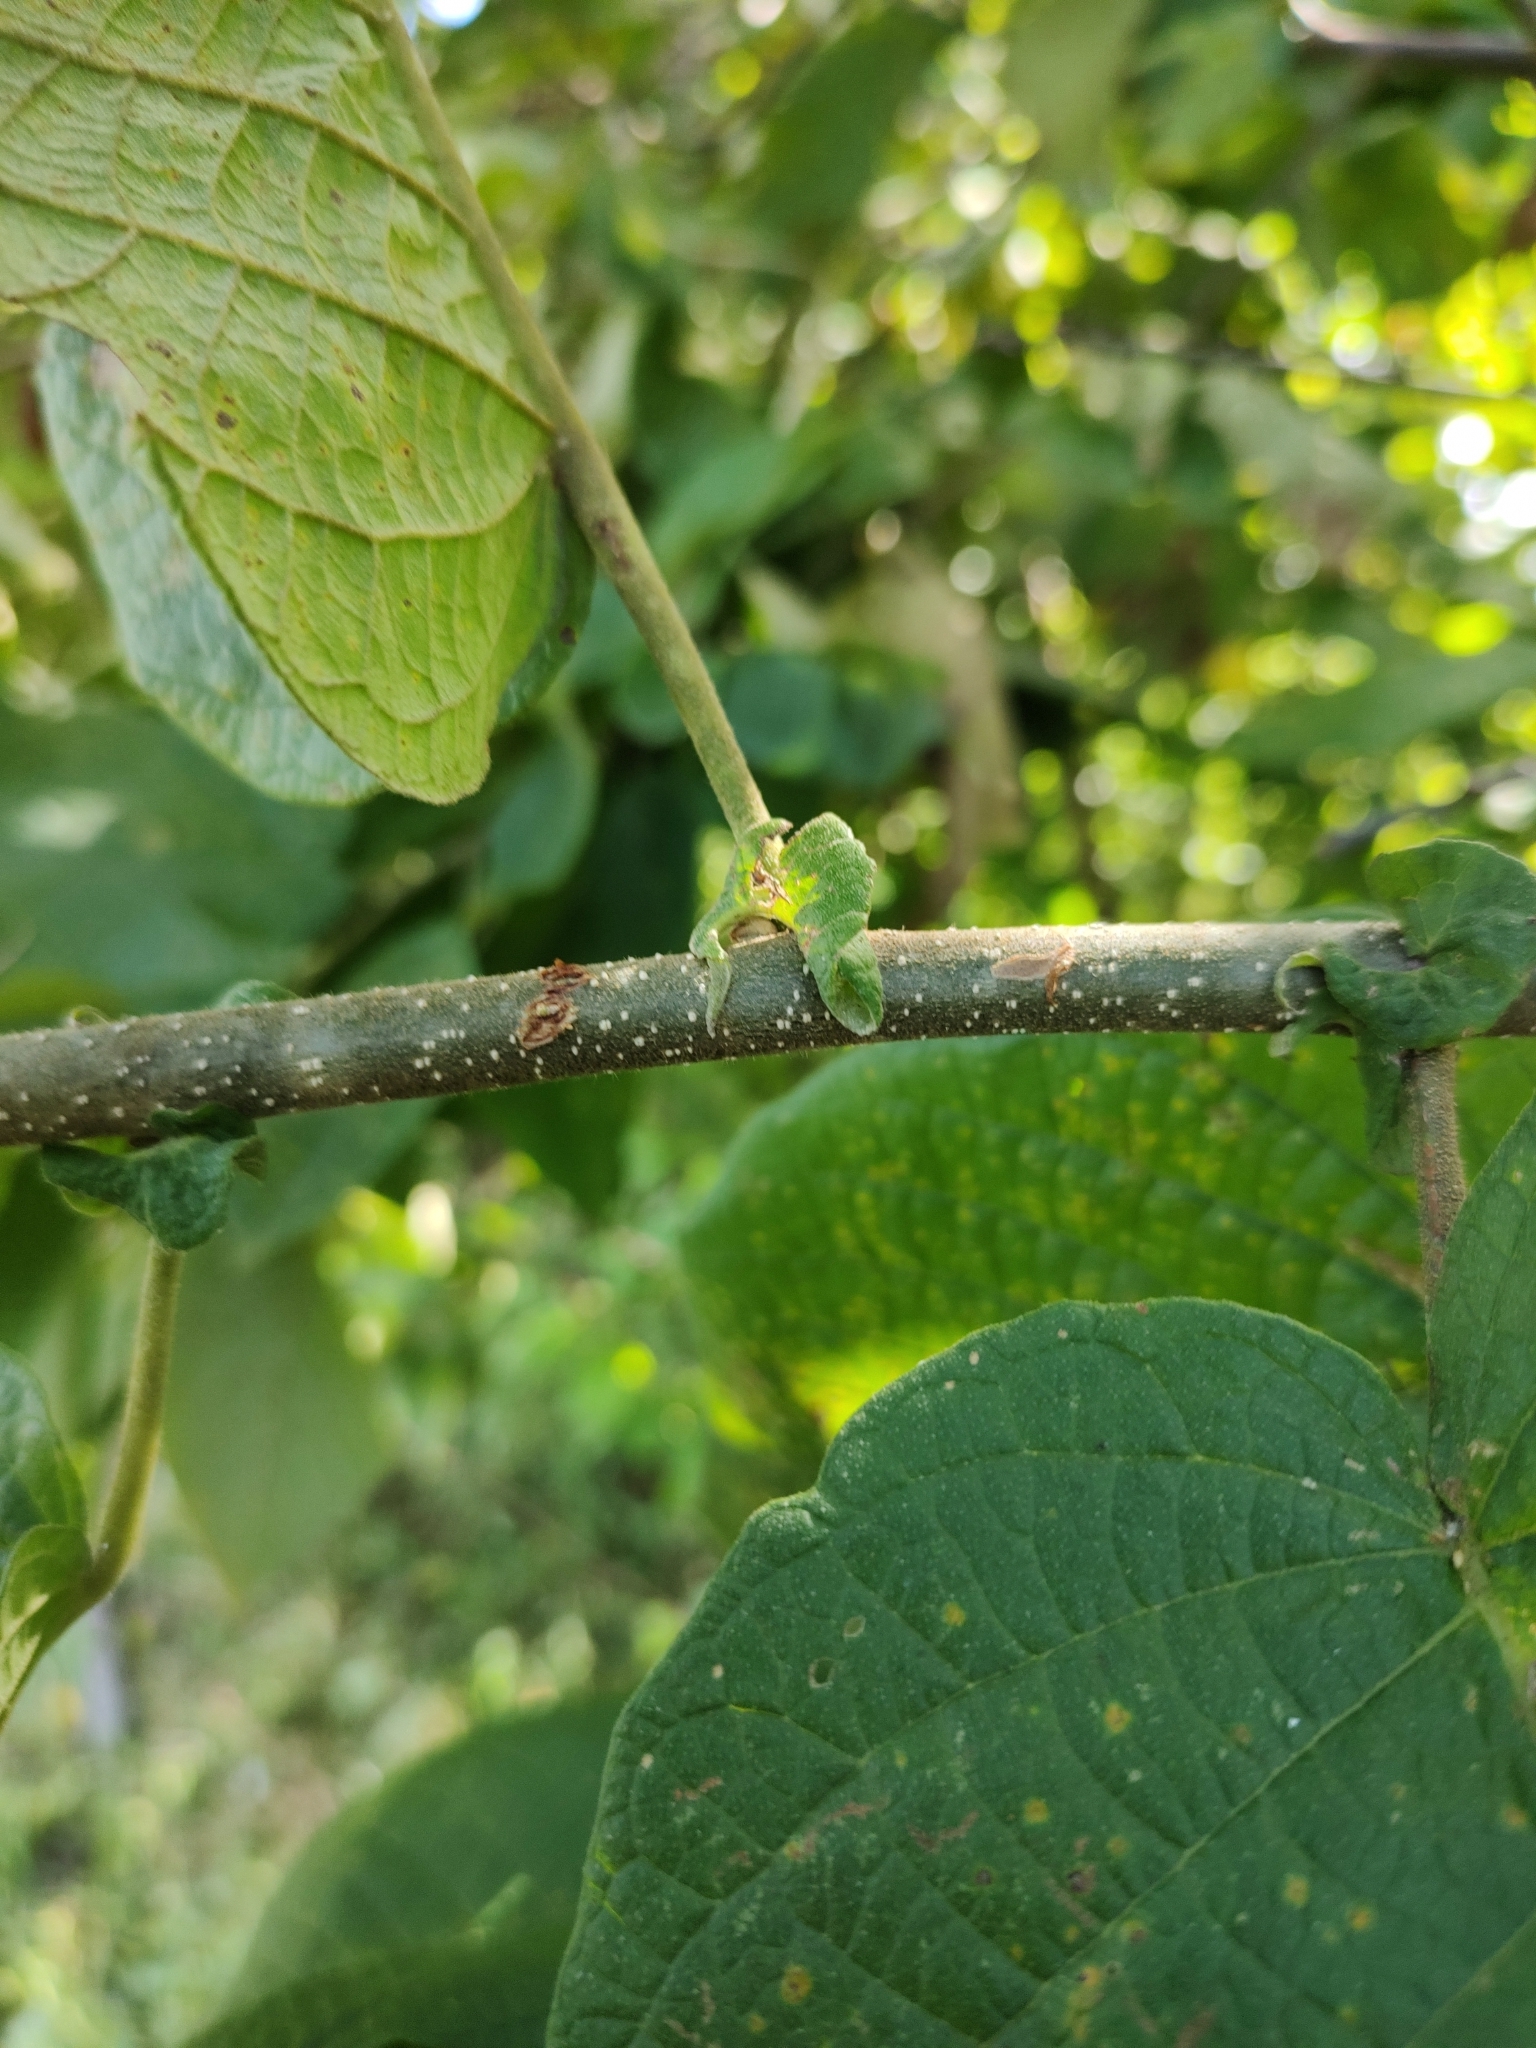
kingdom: Plantae
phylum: Tracheophyta
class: Magnoliopsida
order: Malpighiales
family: Euphorbiaceae
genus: Croton
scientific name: Croton blanchetianus
